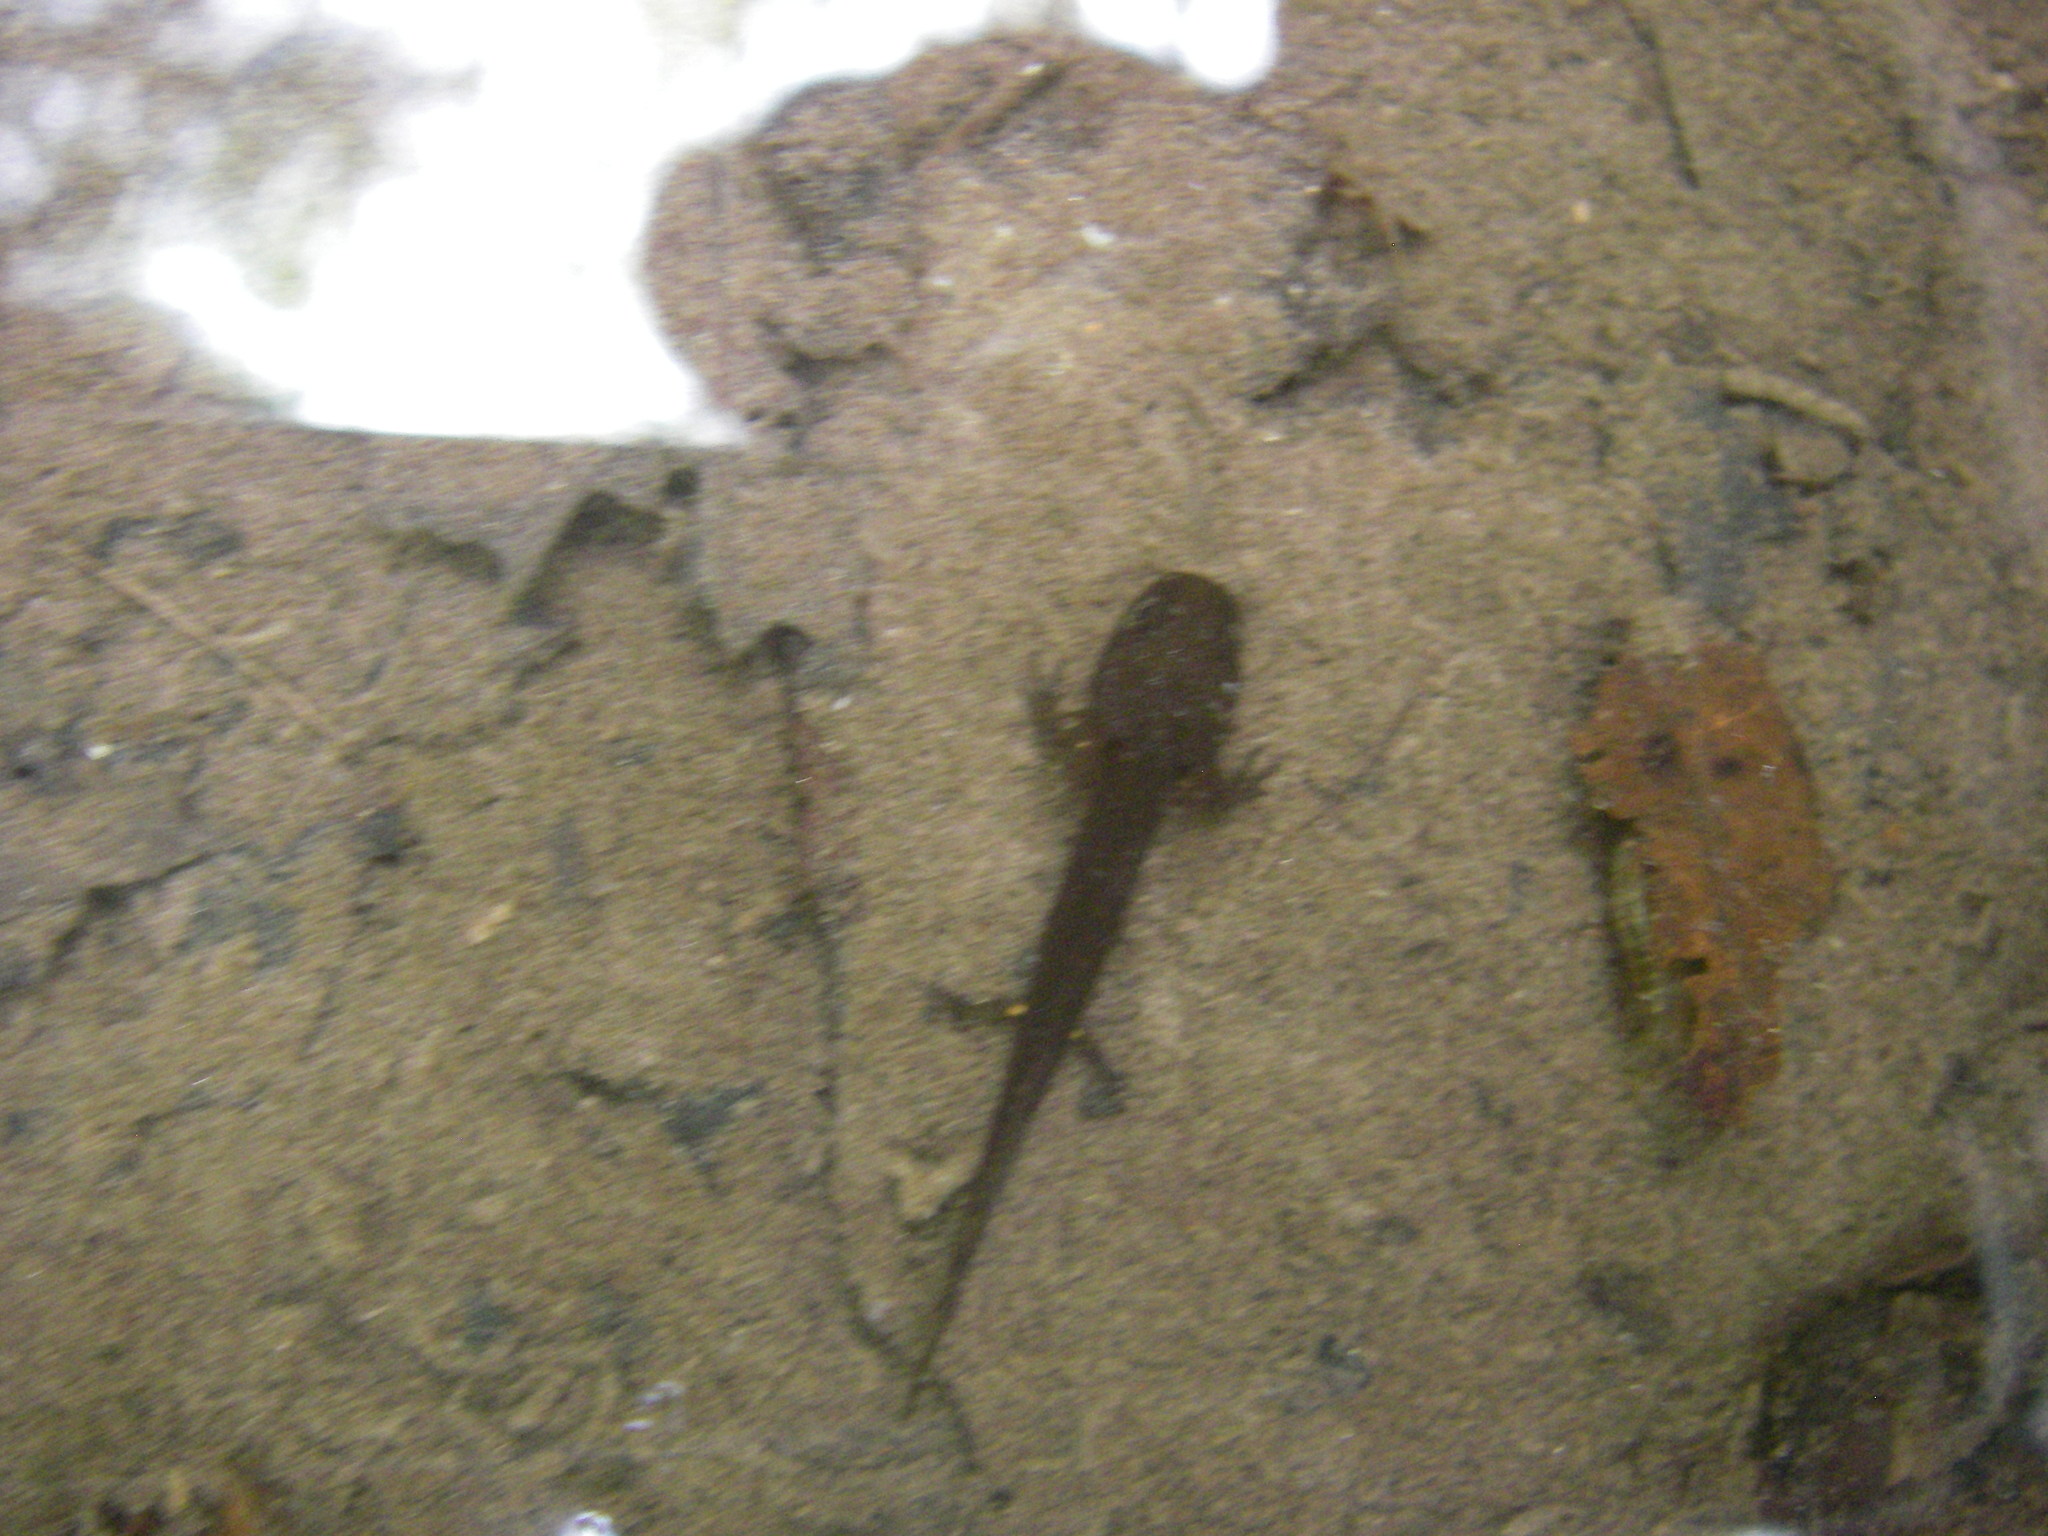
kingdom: Animalia
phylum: Chordata
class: Amphibia
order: Caudata
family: Salamandridae
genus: Salamandra
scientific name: Salamandra salamandra
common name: Fire salamander
